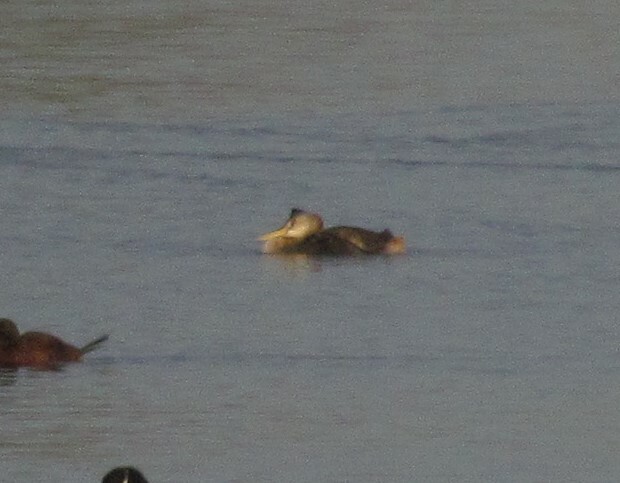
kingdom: Animalia
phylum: Chordata
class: Aves
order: Podicipediformes
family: Podicipedidae
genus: Podiceps
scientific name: Podiceps major
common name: Great grebe
